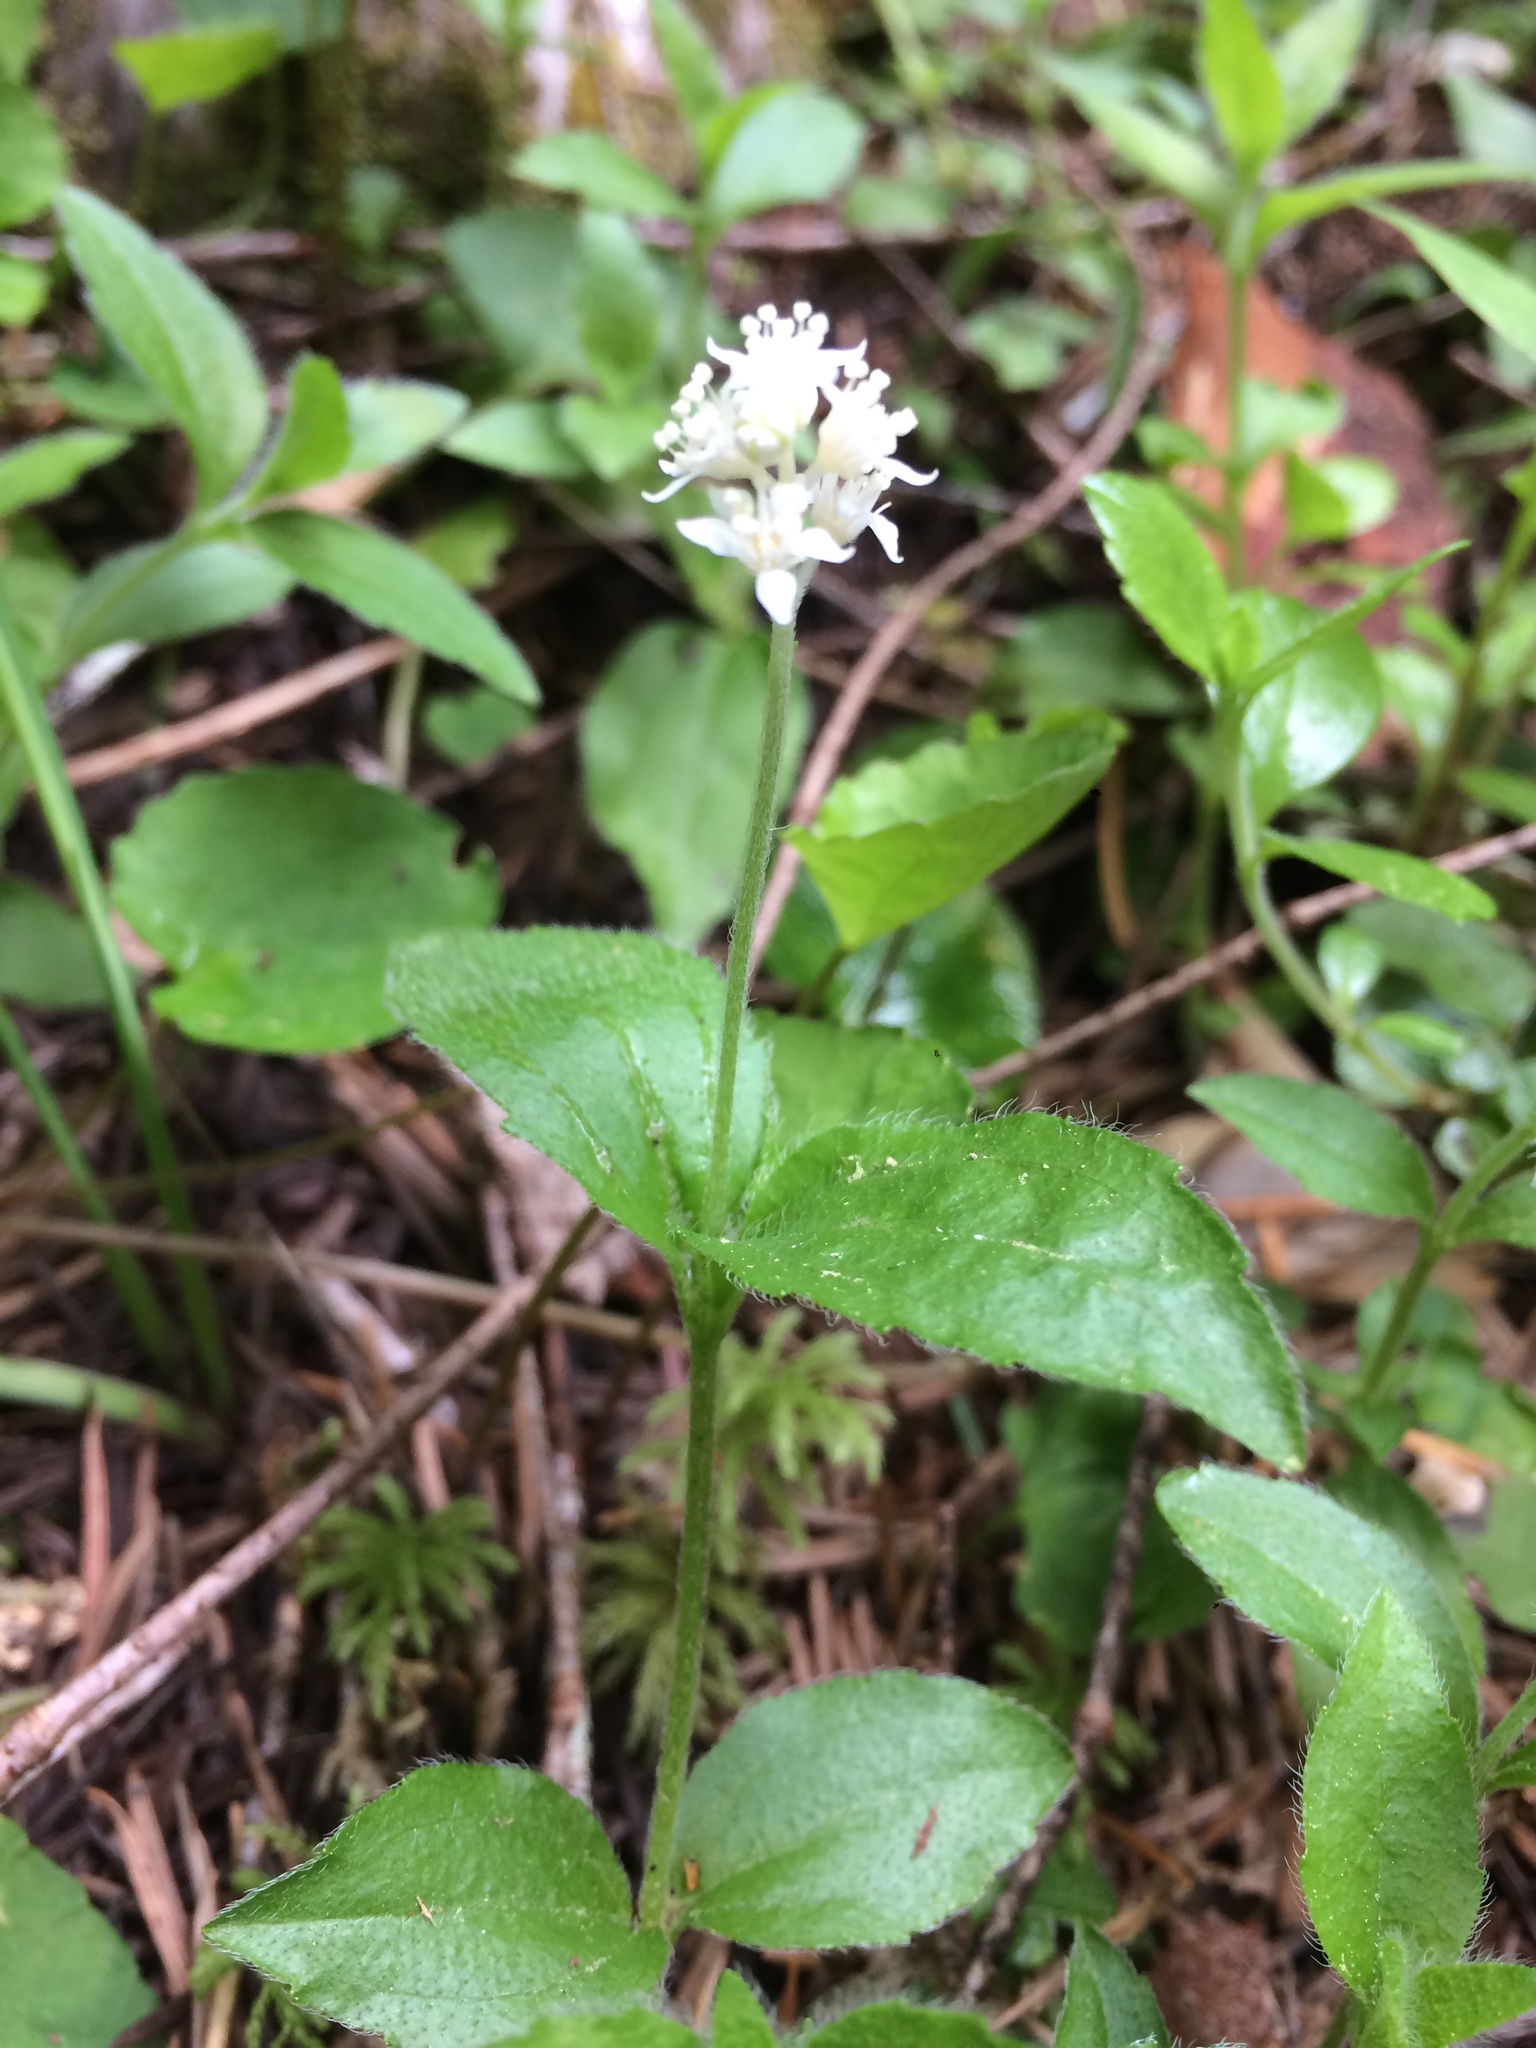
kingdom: Plantae
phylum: Tracheophyta
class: Magnoliopsida
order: Cornales
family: Hydrangeaceae
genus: Whipplea
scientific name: Whipplea modesta
